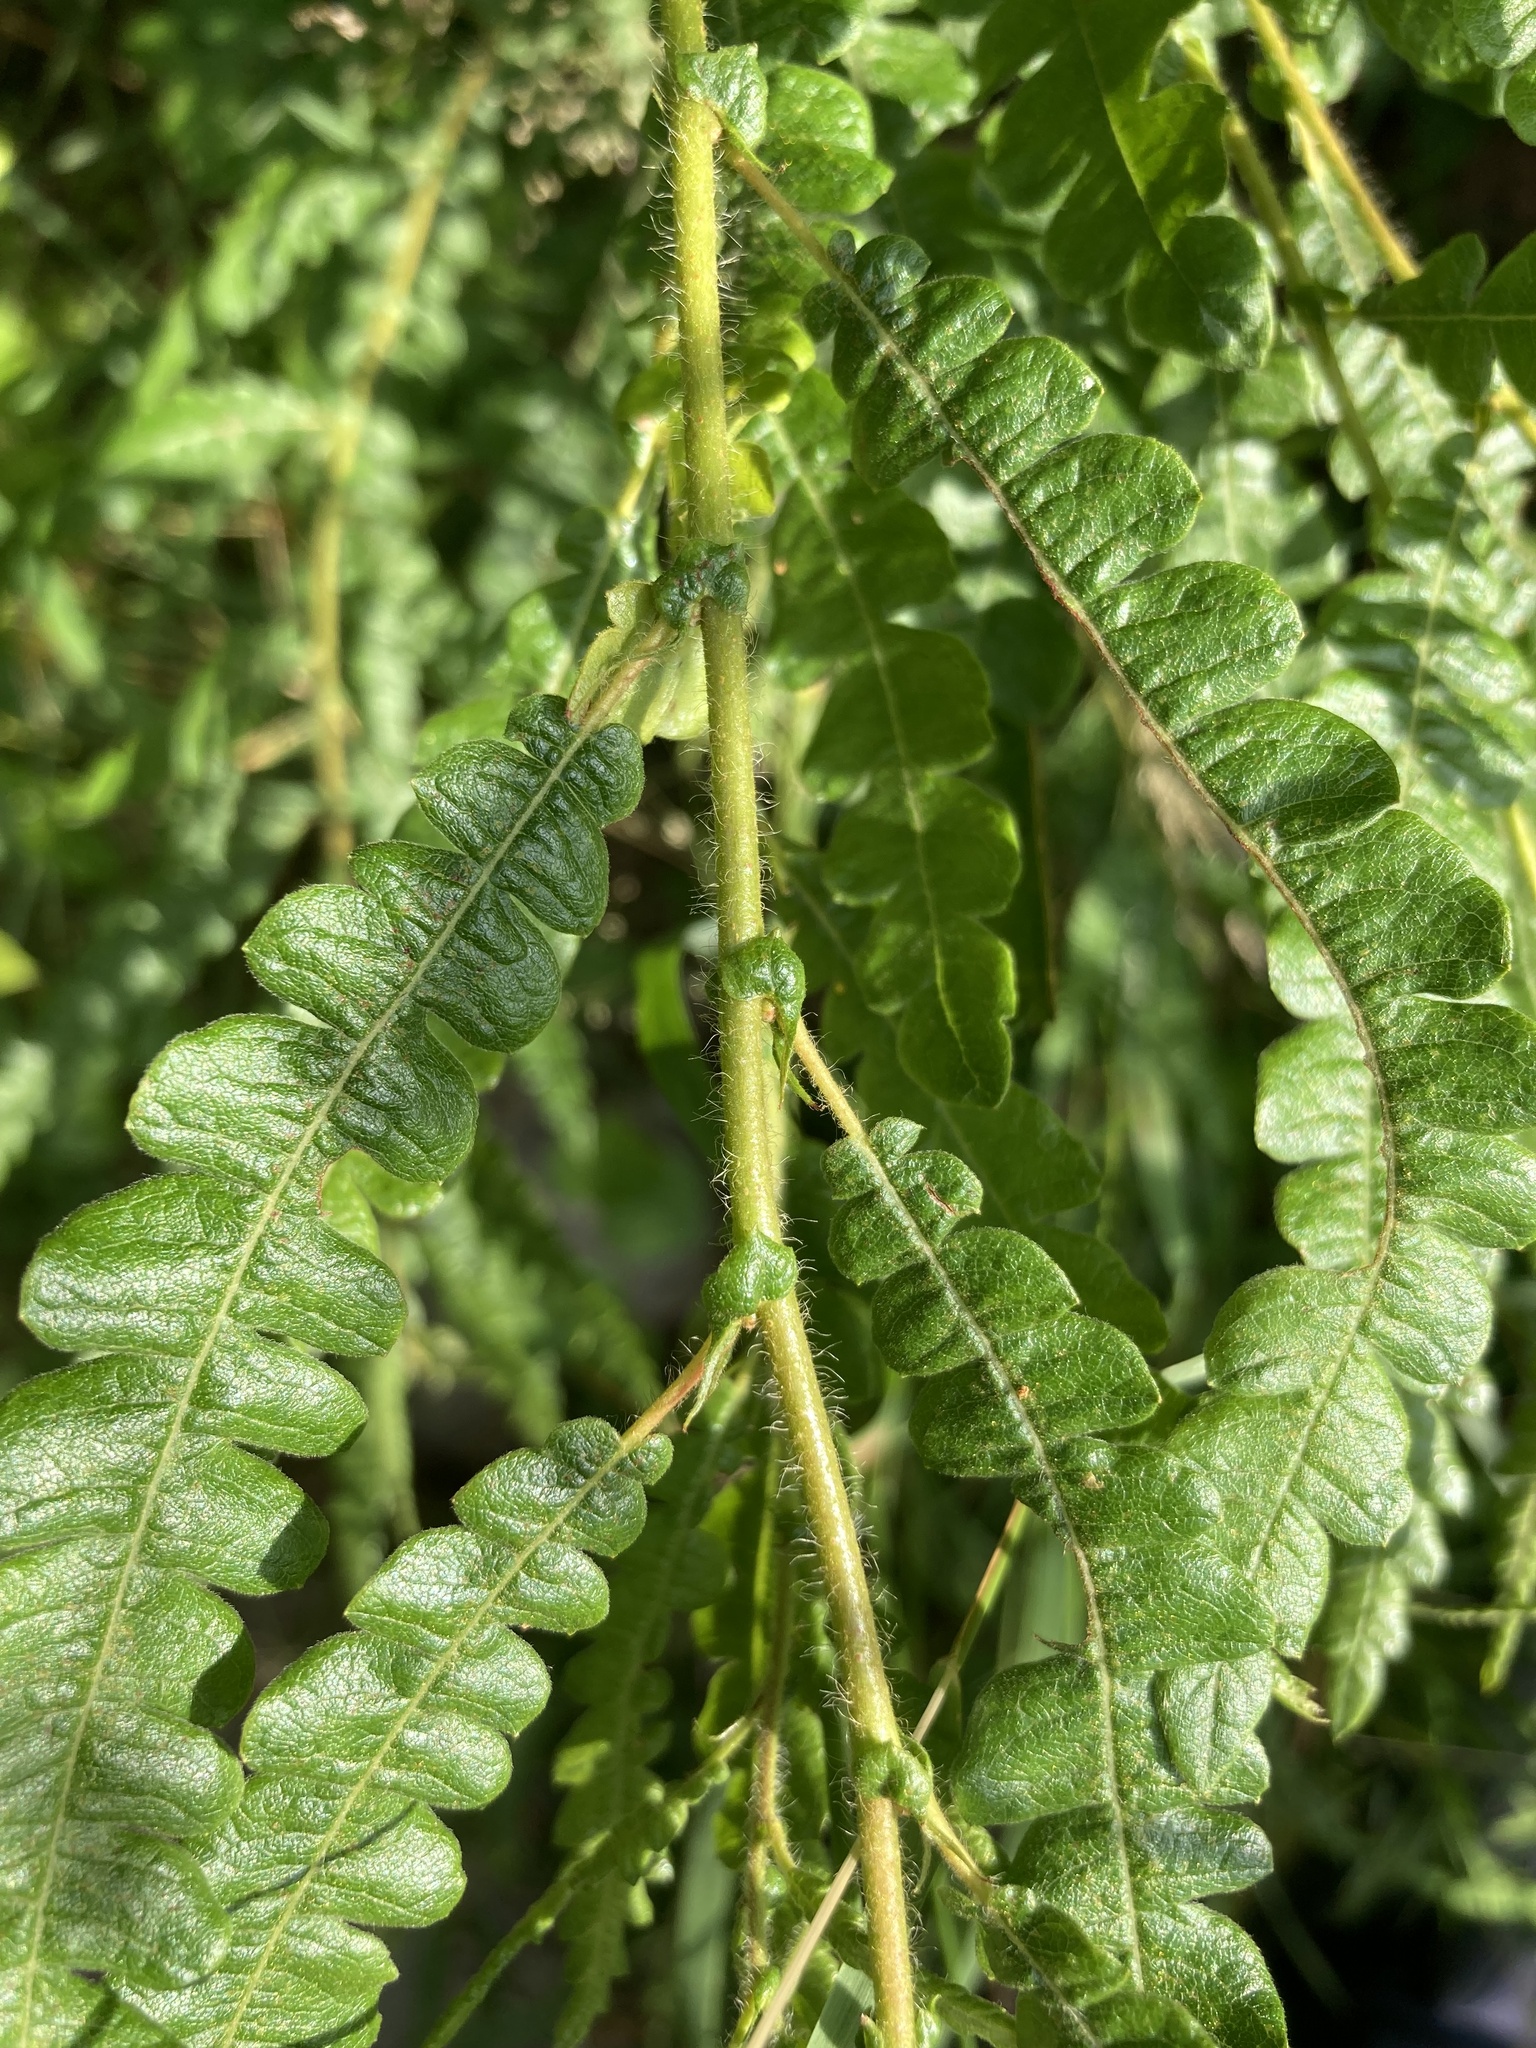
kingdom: Plantae
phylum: Tracheophyta
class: Magnoliopsida
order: Fagales
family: Myricaceae
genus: Comptonia
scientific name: Comptonia peregrina
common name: Sweet-fern
